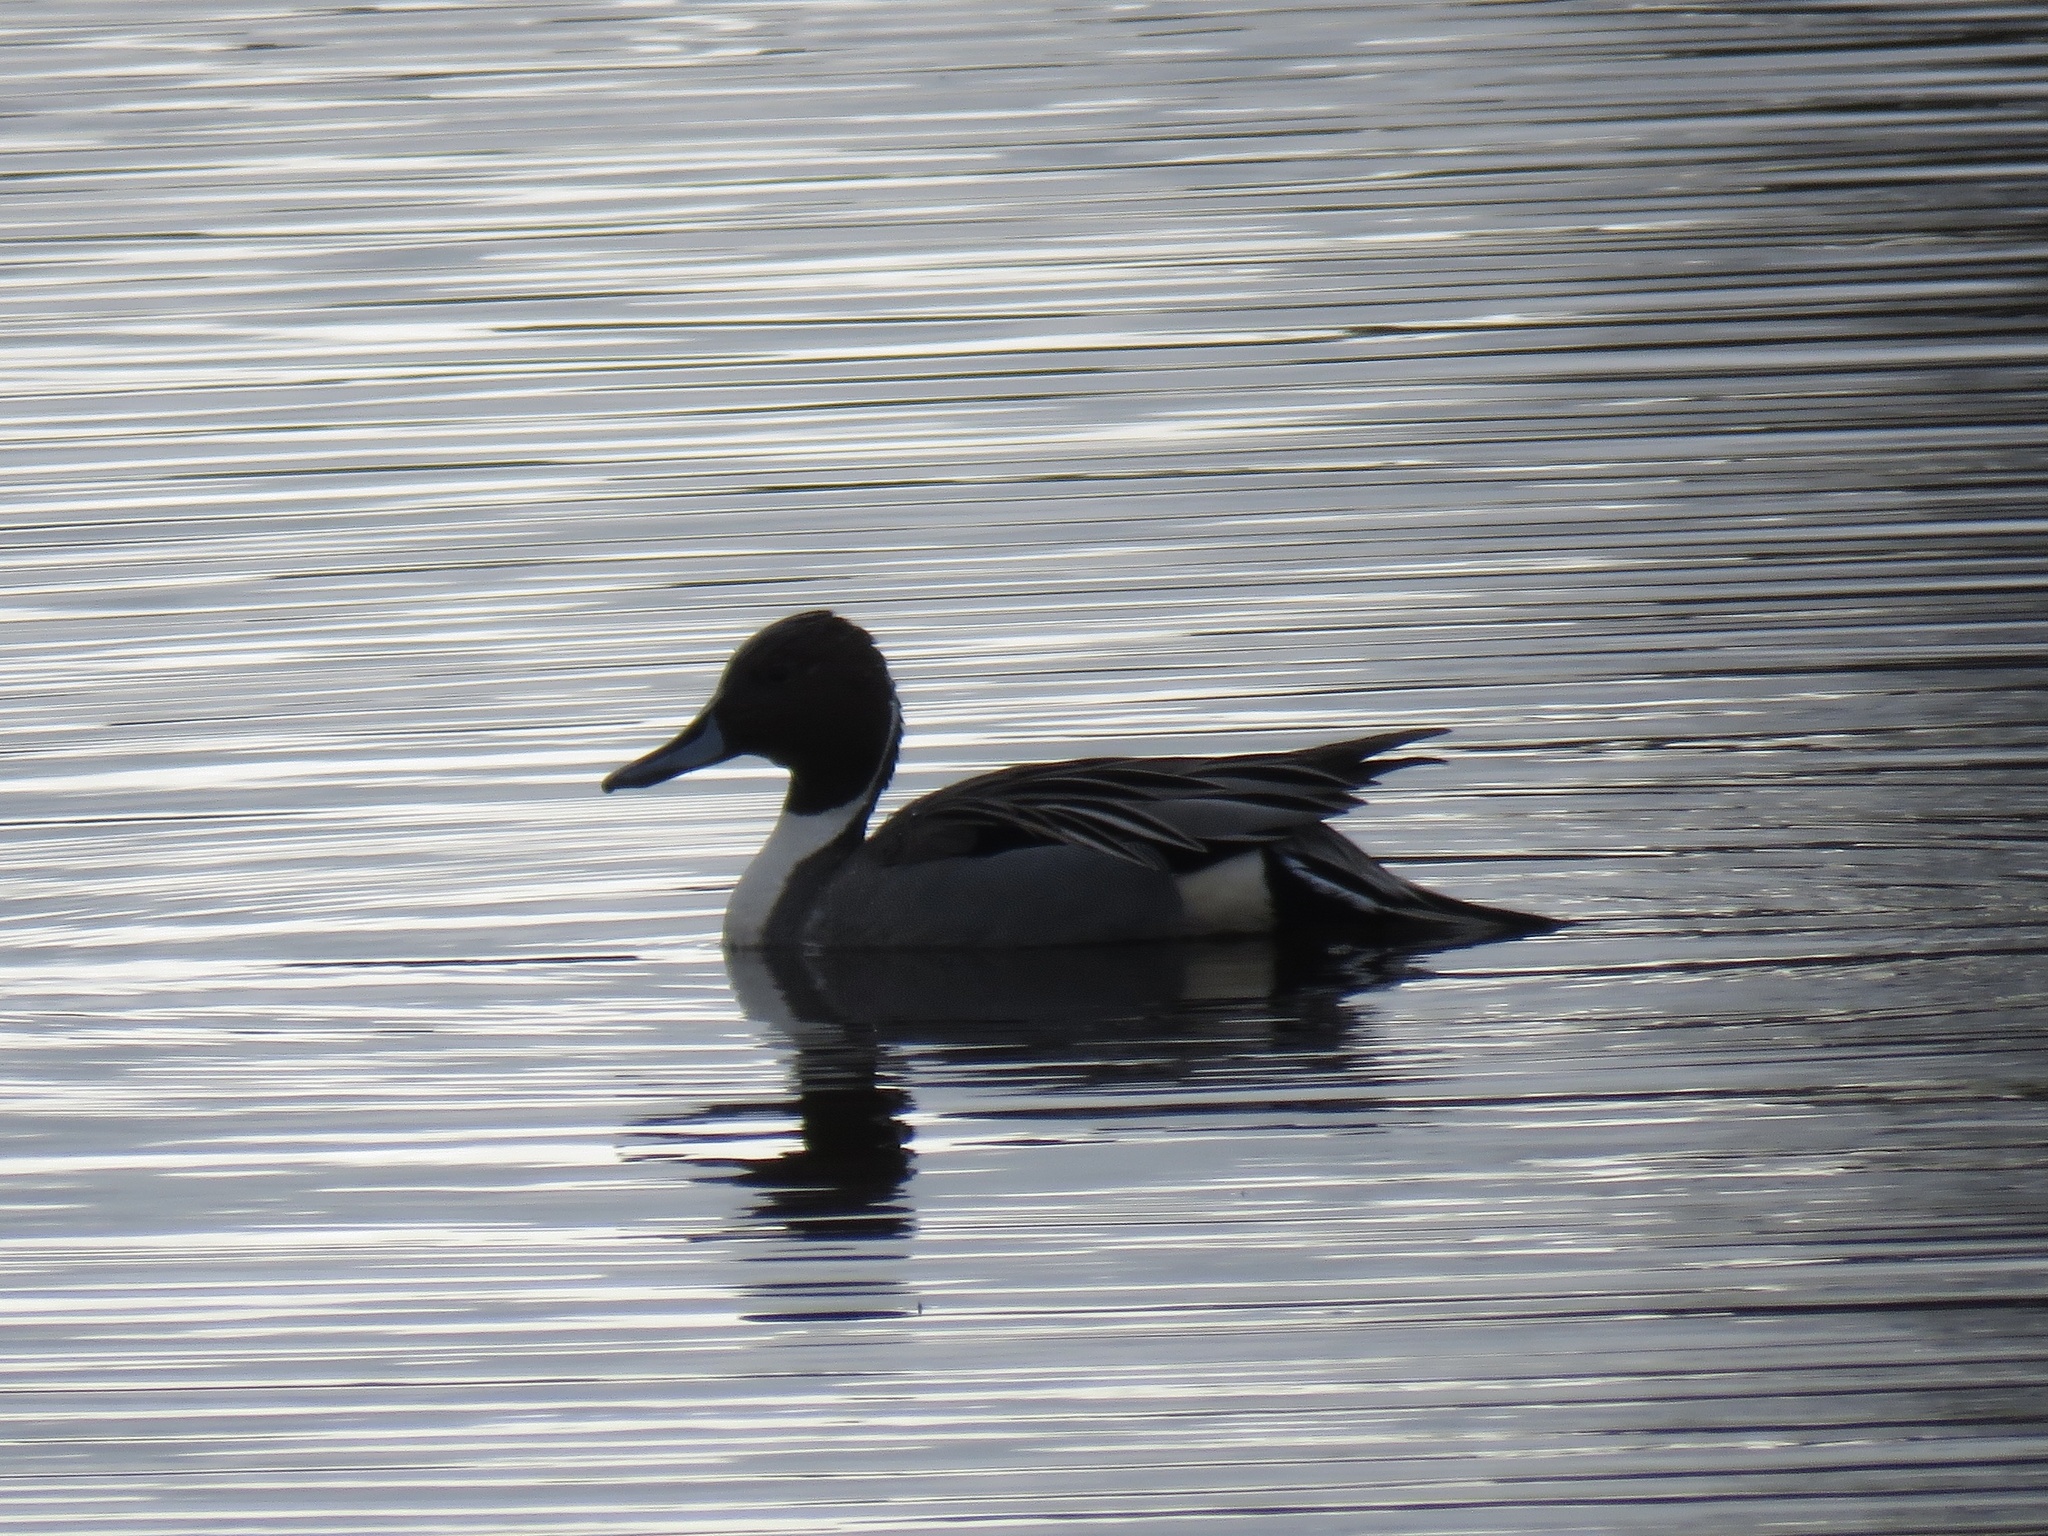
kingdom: Animalia
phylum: Chordata
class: Aves
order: Anseriformes
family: Anatidae
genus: Anas
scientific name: Anas acuta
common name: Northern pintail
